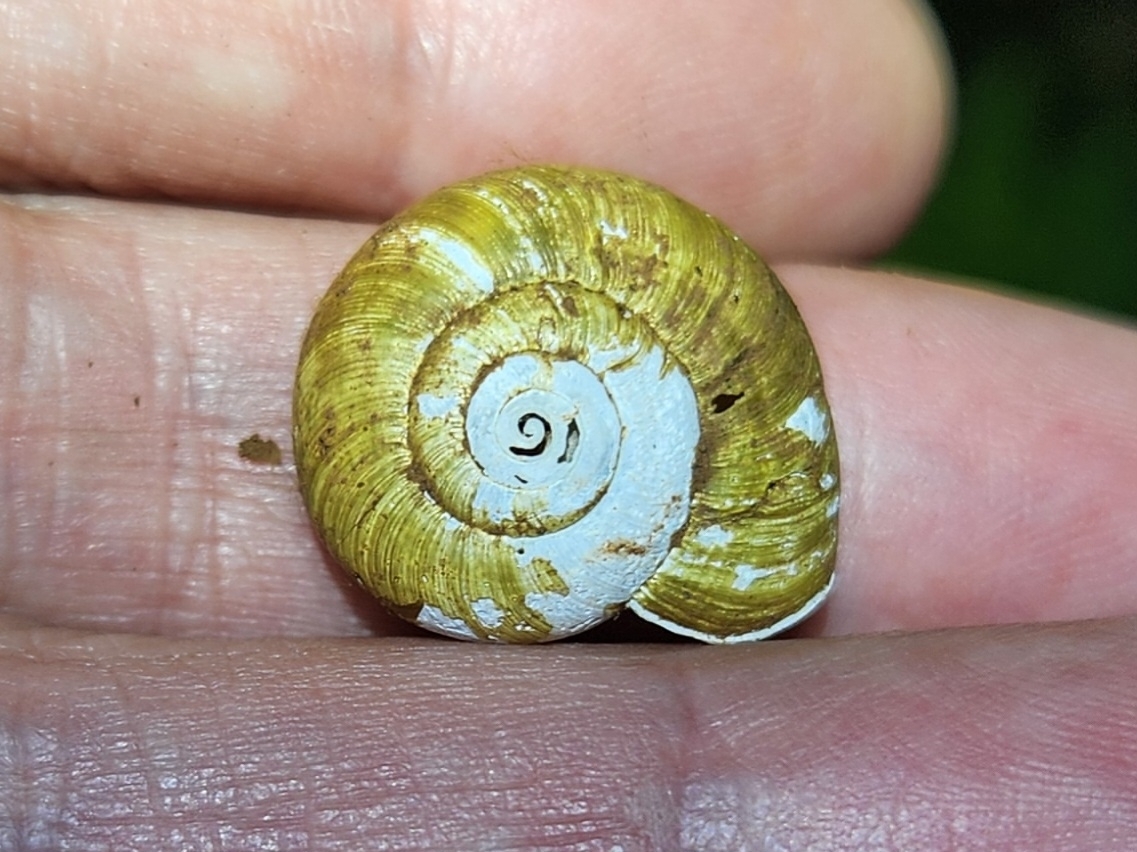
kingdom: Animalia
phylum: Mollusca
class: Gastropoda
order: Stylommatophora
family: Haplotrematidae
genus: Haplotrema
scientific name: Haplotrema vancouverense
